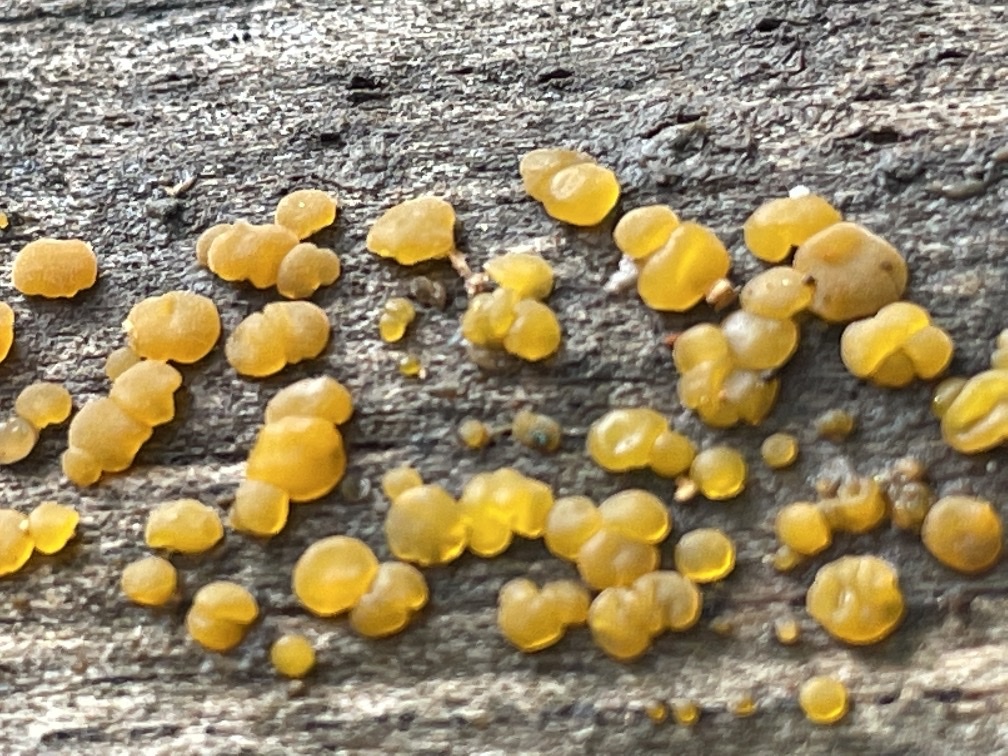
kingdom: Fungi
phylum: Basidiomycota
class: Dacrymycetes
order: Dacrymycetales
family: Dacrymycetaceae
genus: Dacrymyces
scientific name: Dacrymyces stillatus
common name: Common jelly spot
